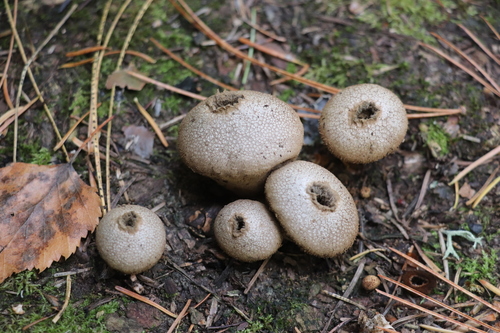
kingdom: Fungi
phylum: Basidiomycota
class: Agaricomycetes
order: Agaricales
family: Lycoperdaceae
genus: Lycoperdon
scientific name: Lycoperdon perlatum
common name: Common puffball
